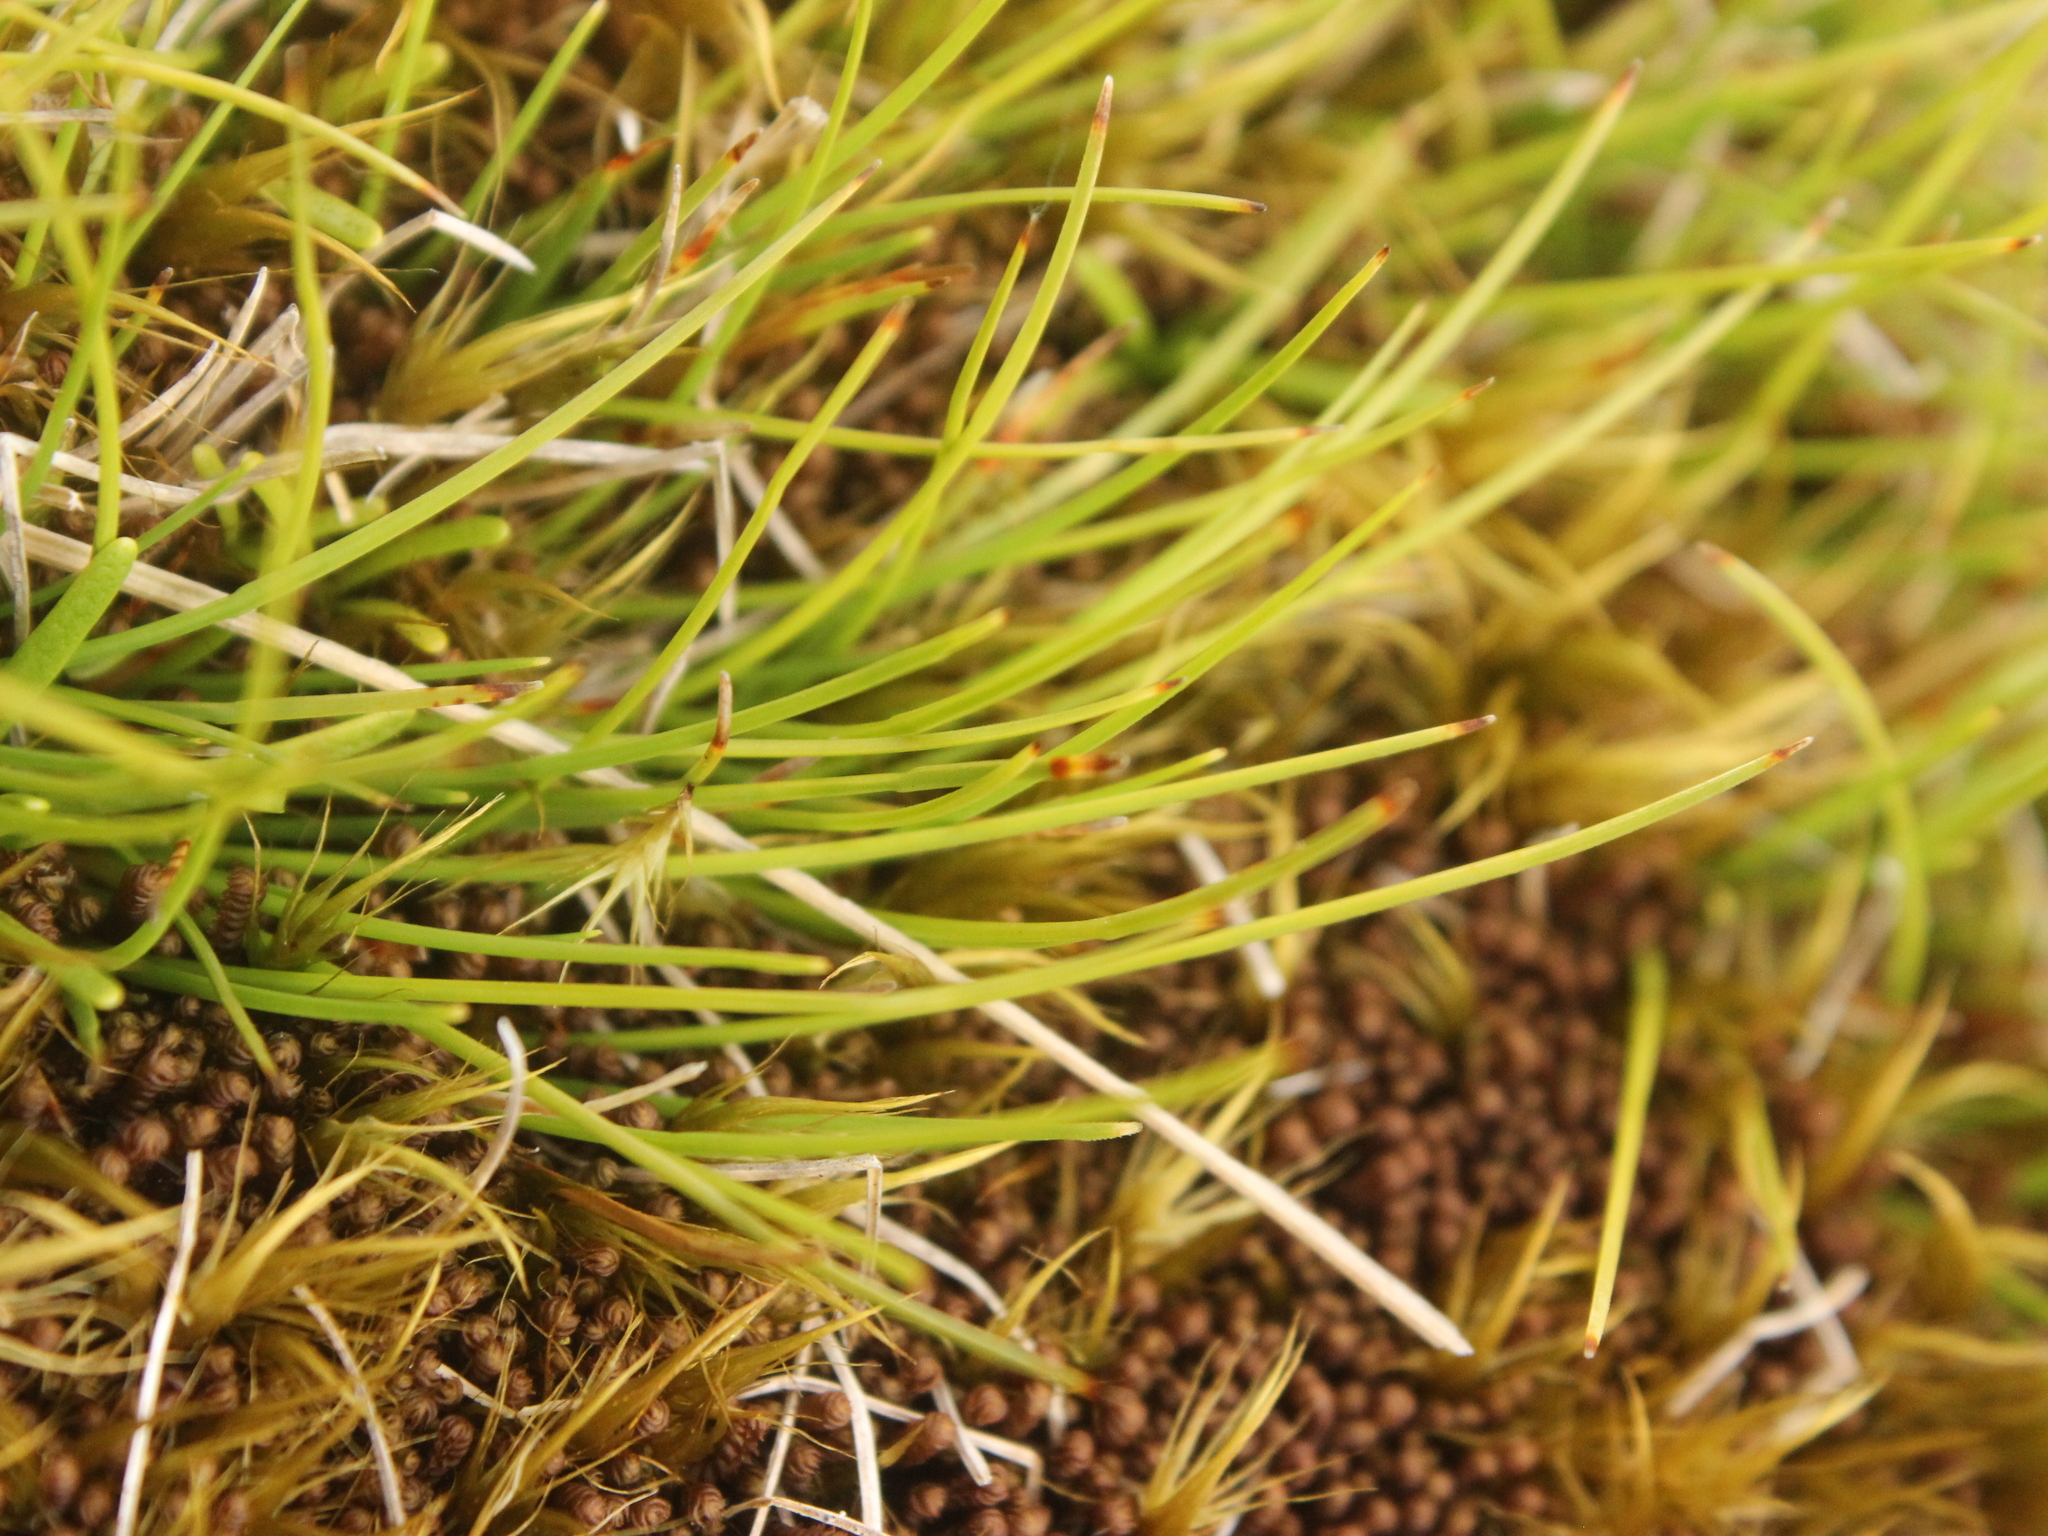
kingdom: Plantae
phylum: Tracheophyta
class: Liliopsida
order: Poales
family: Cyperaceae
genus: Oreobolus
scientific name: Oreobolus strictus
